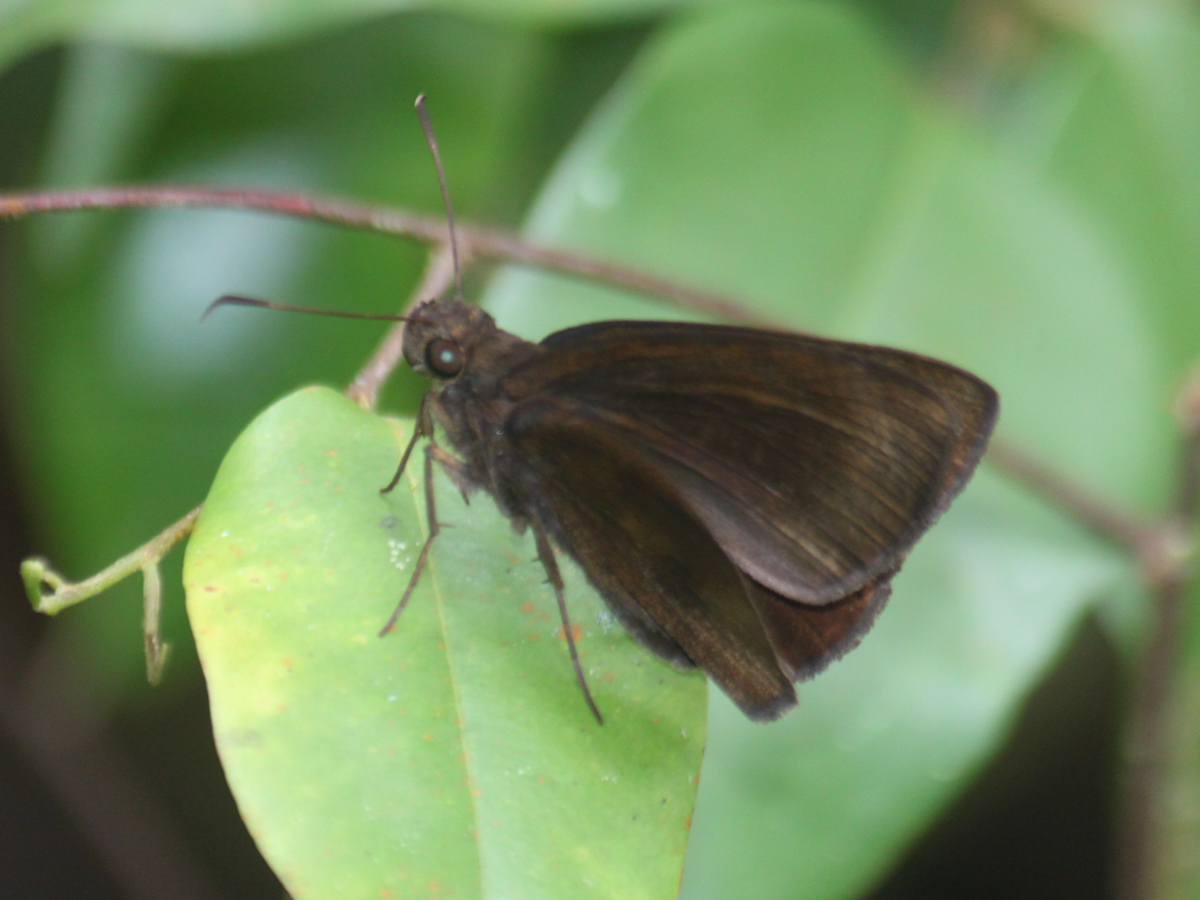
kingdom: Animalia
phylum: Arthropoda
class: Insecta
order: Lepidoptera
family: Hesperiidae
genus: Ancistroides
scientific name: Ancistroides nigrita
